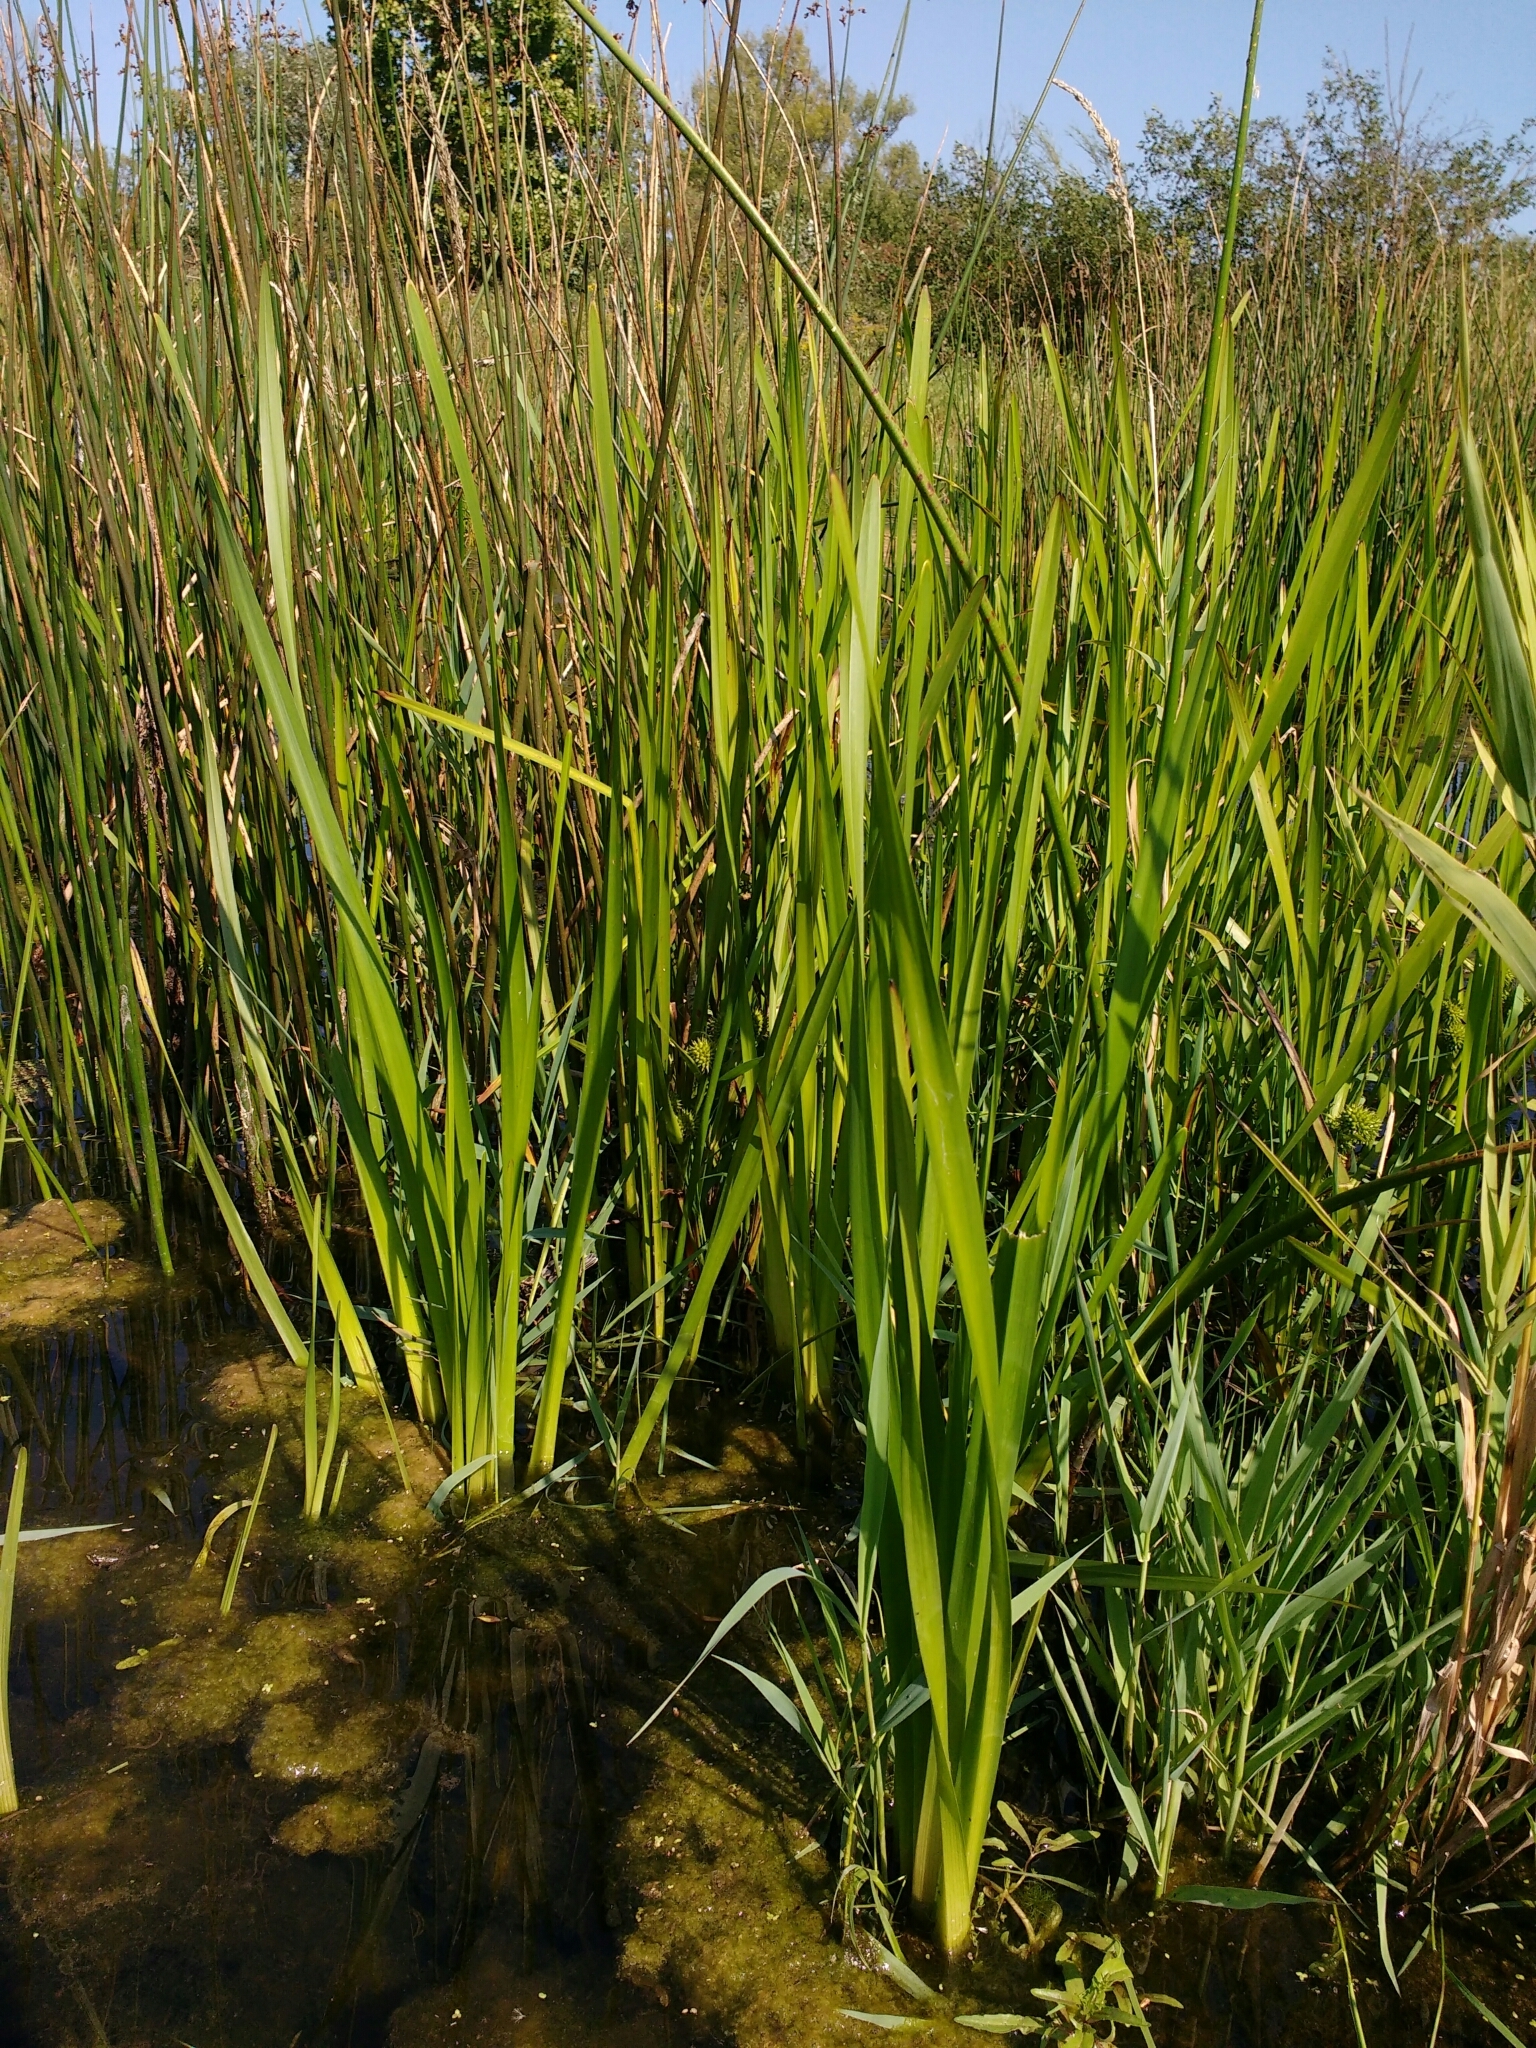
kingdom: Plantae
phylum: Tracheophyta
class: Liliopsida
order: Poales
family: Typhaceae
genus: Sparganium
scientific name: Sparganium erectum
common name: Branched bur-reed
